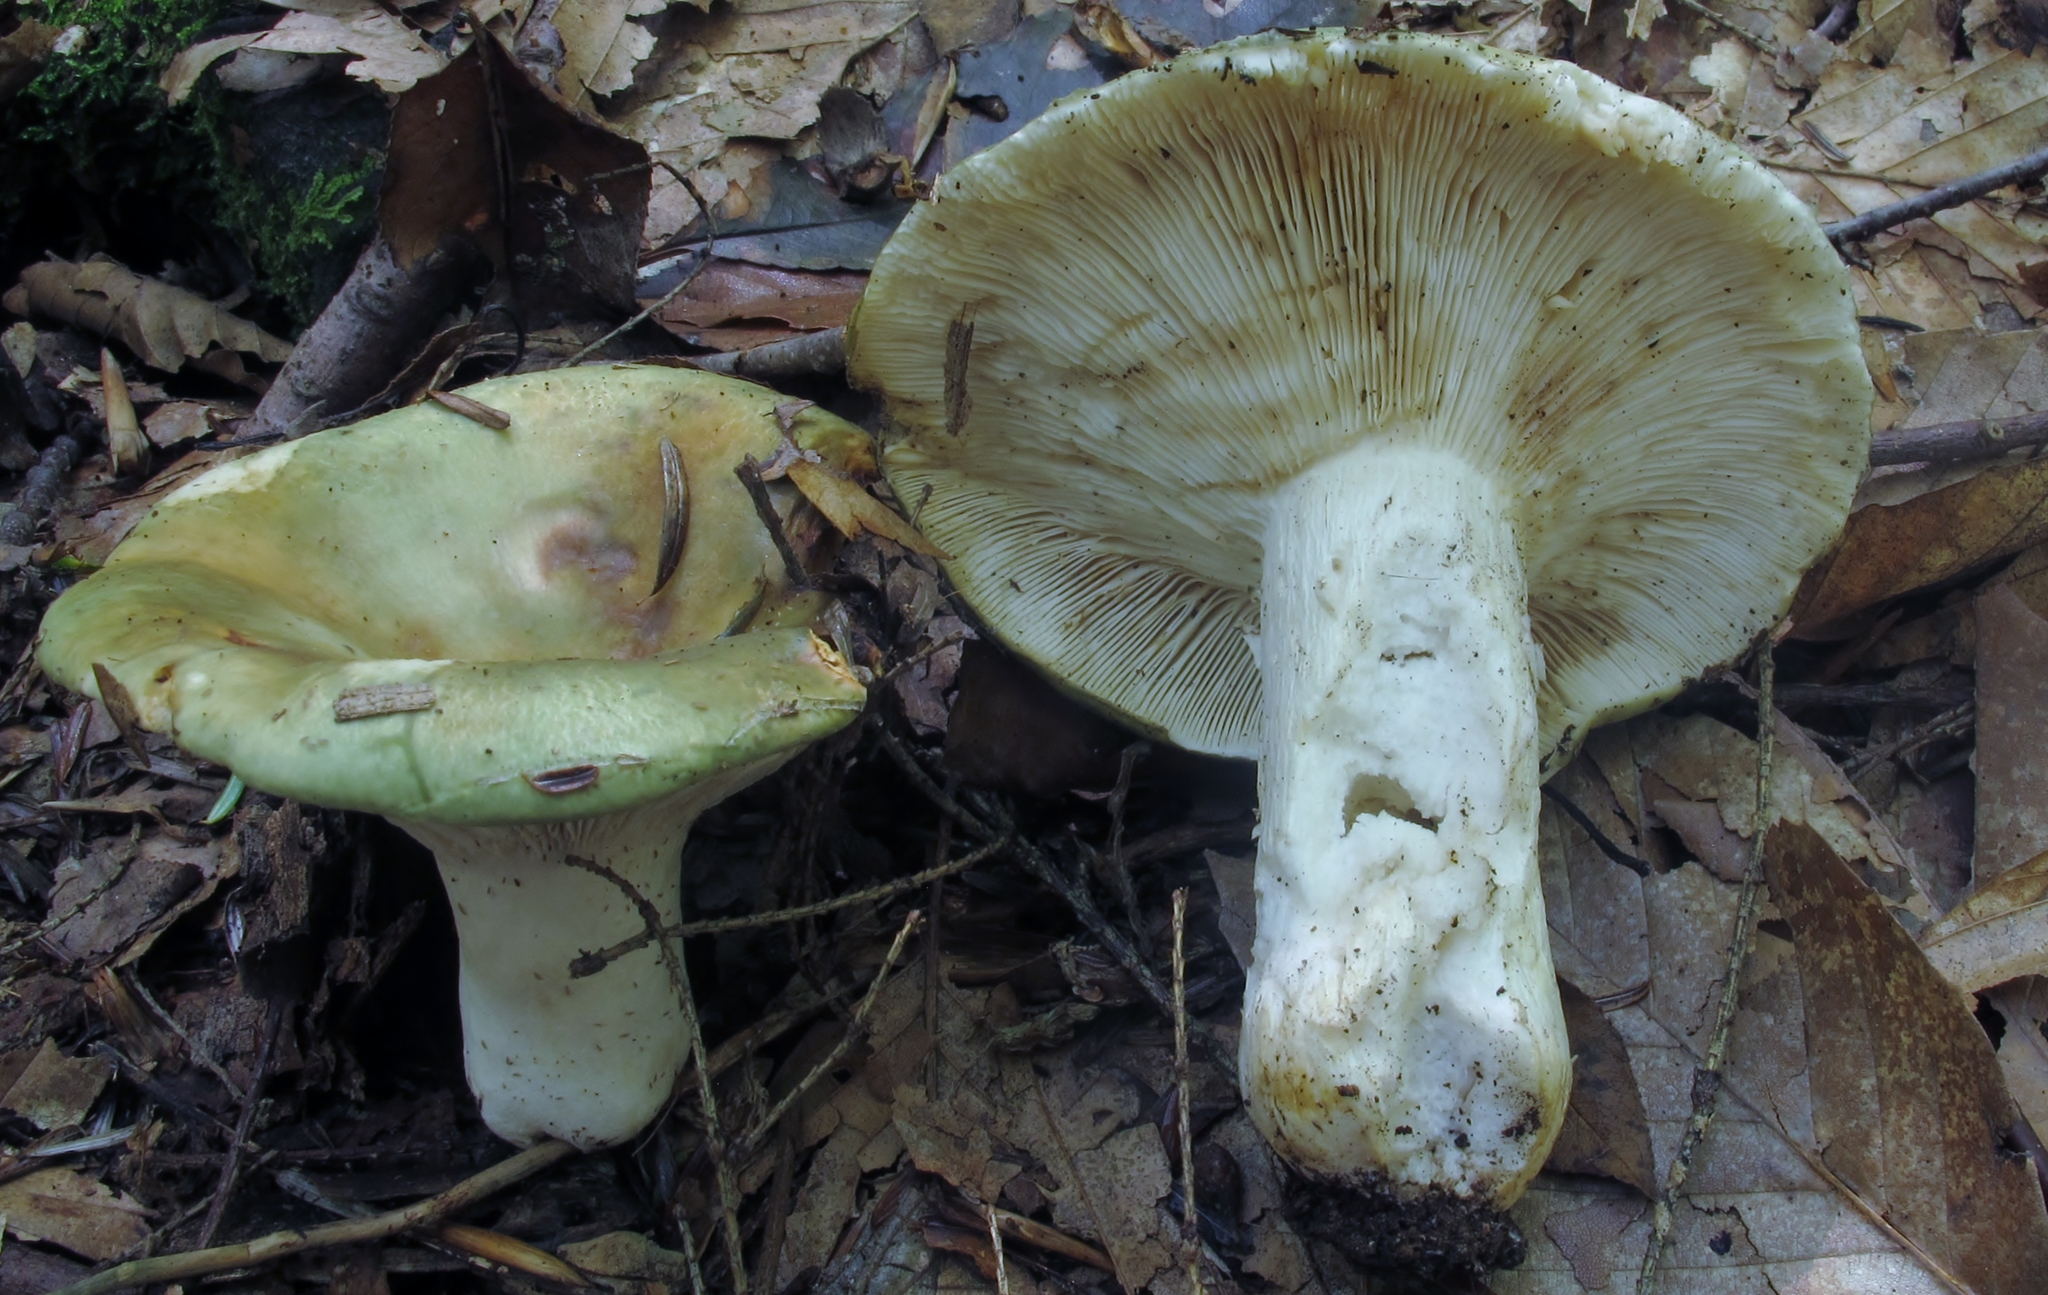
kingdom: Fungi
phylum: Basidiomycota
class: Agaricomycetes
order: Russulales
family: Russulaceae
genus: Russula
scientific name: Russula cyanoxantha
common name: Charcoal burner
